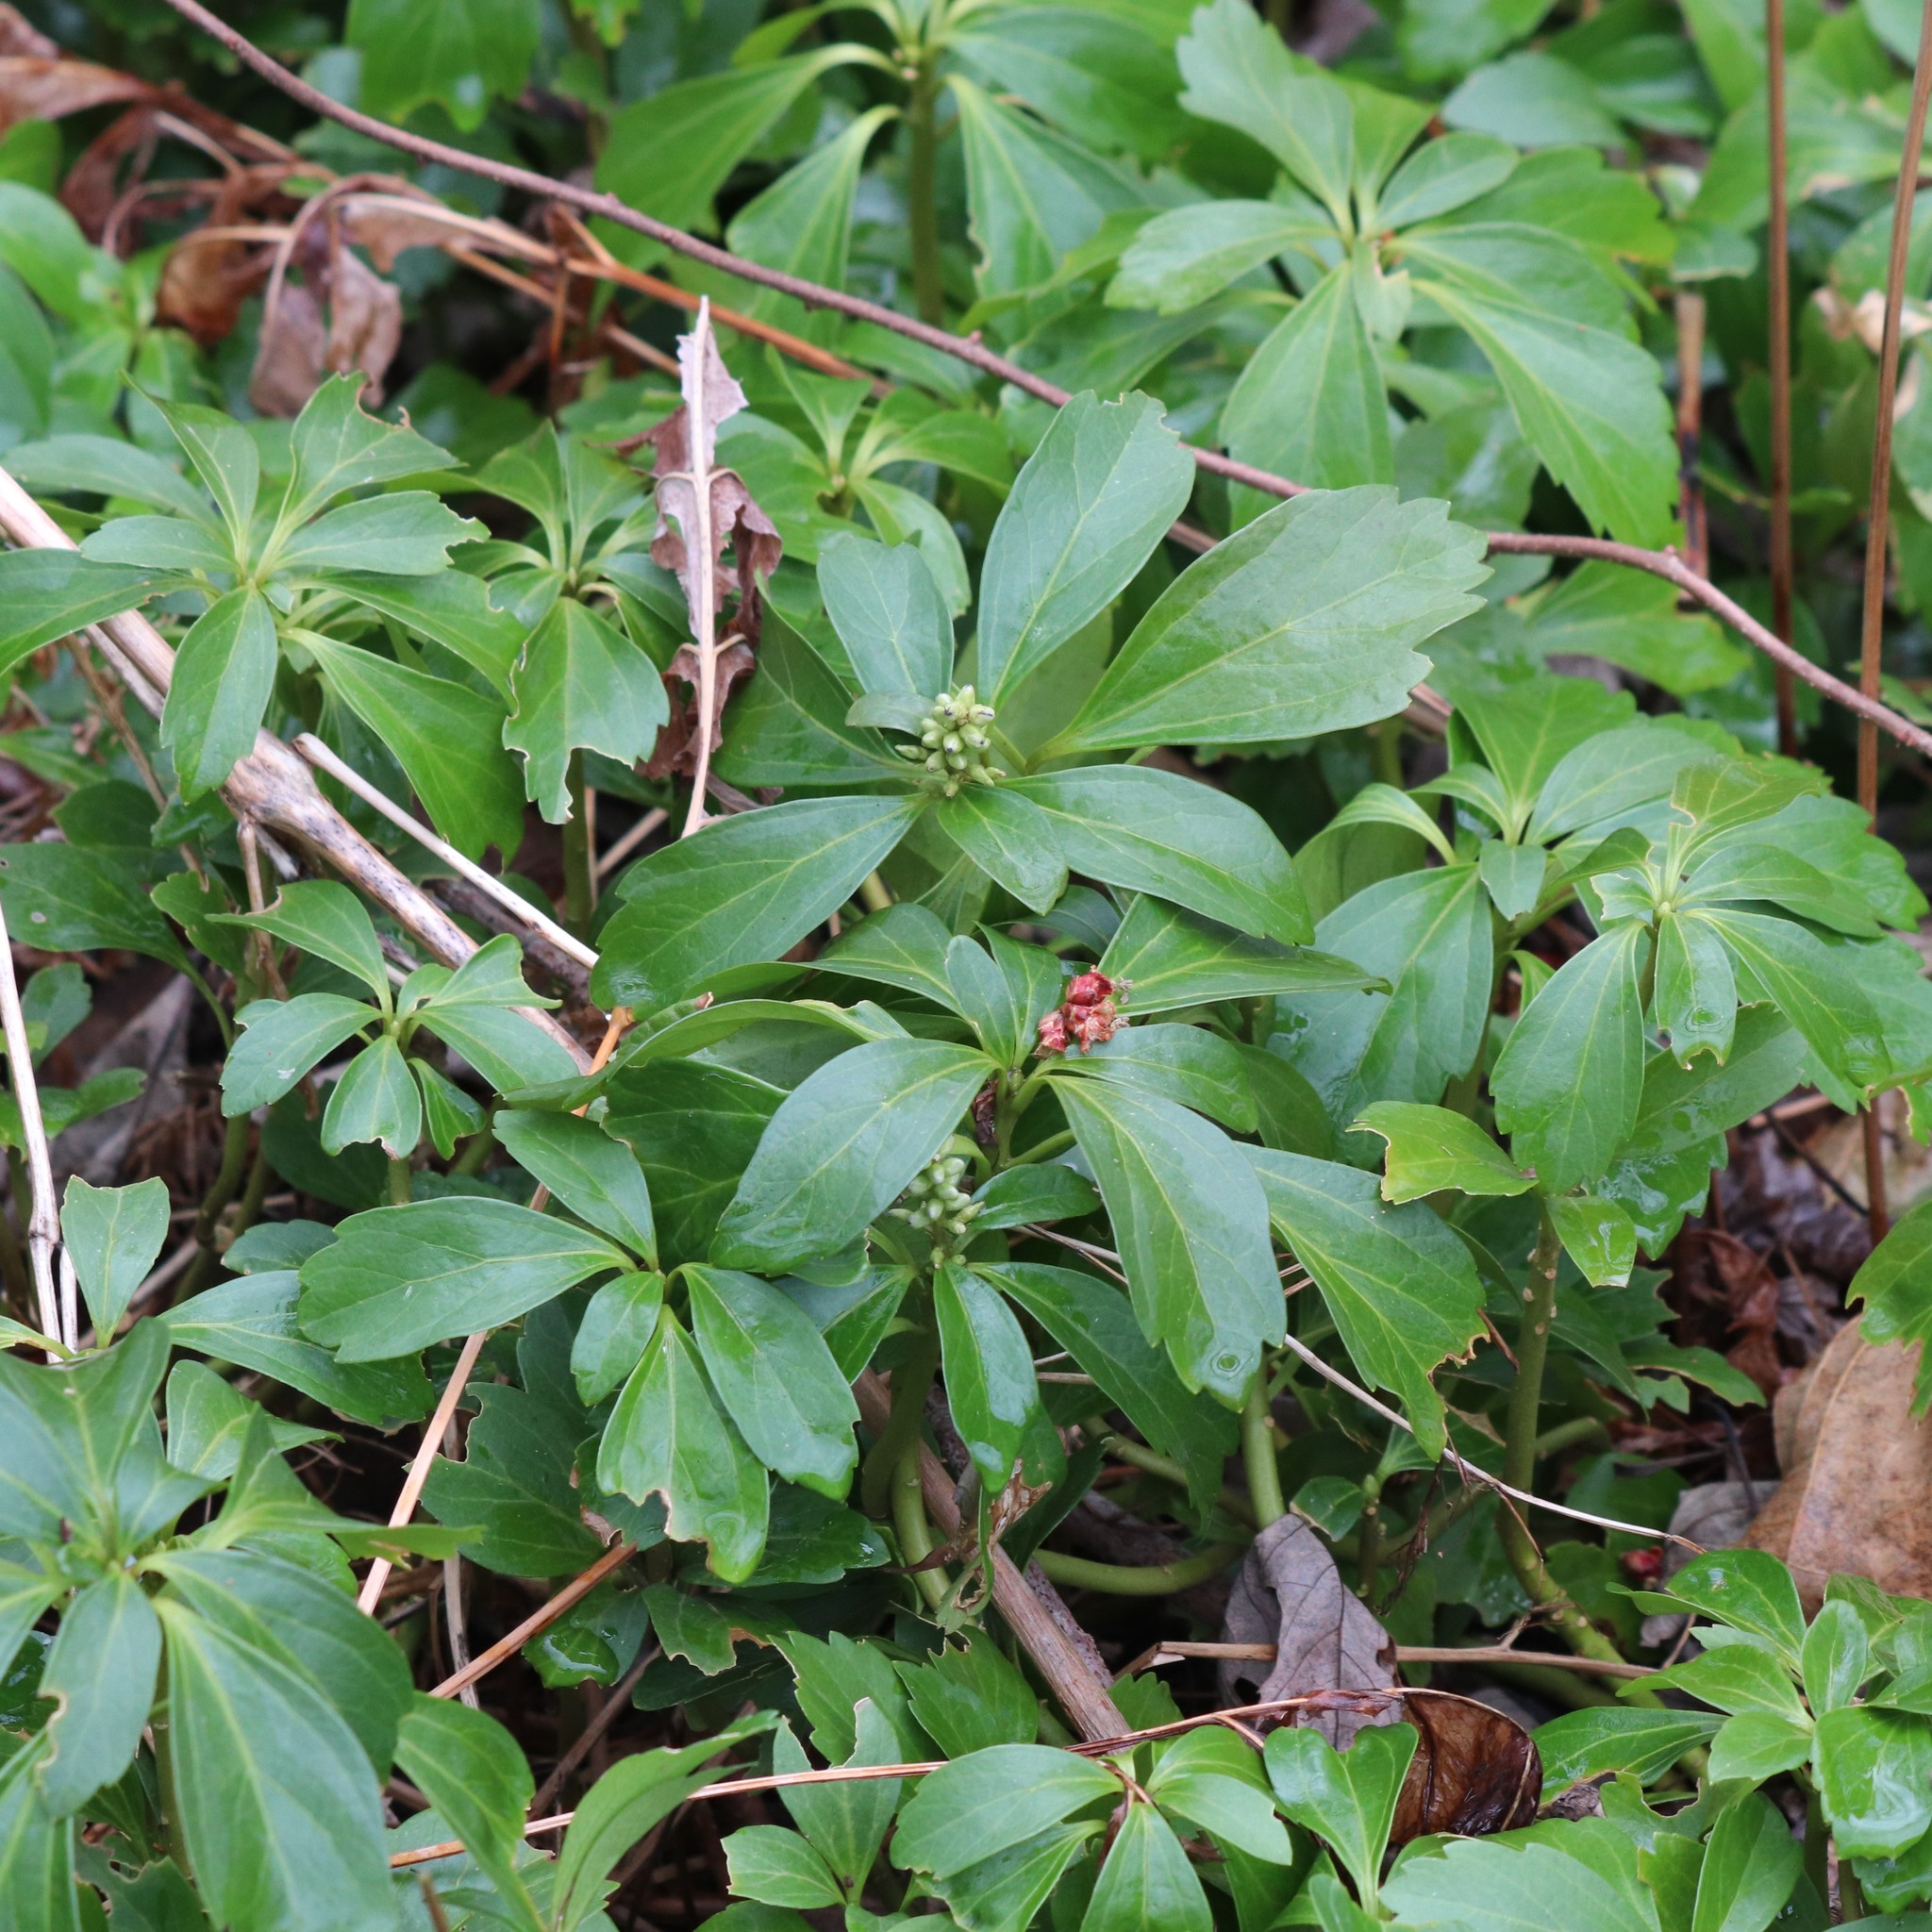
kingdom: Plantae
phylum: Tracheophyta
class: Magnoliopsida
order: Buxales
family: Buxaceae
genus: Pachysandra
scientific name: Pachysandra terminalis
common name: Japanese pachysandra
